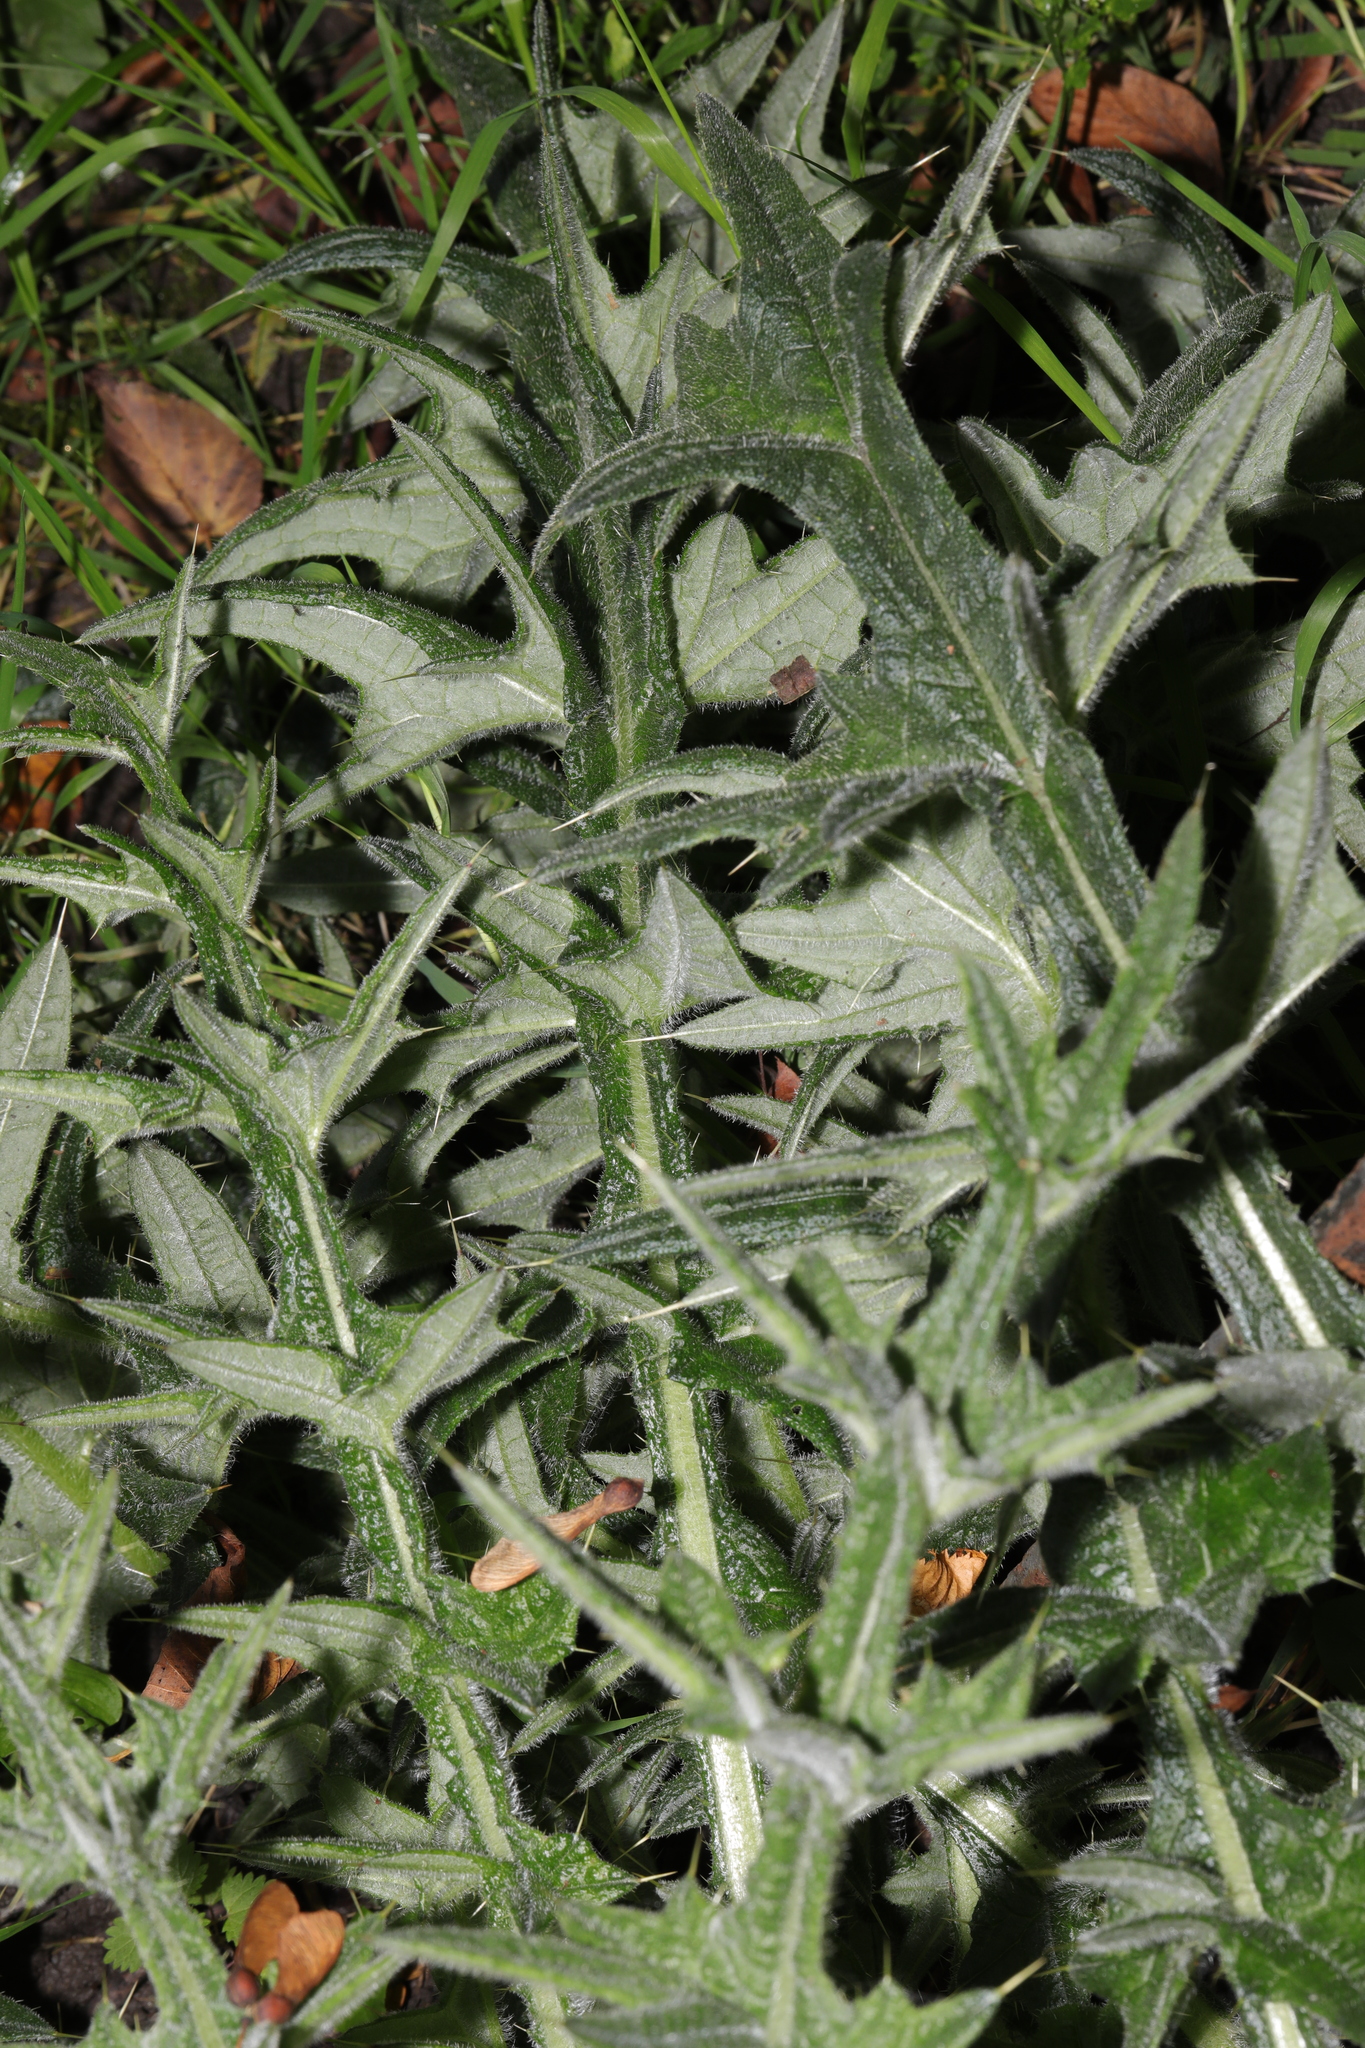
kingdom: Plantae
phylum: Tracheophyta
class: Magnoliopsida
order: Asterales
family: Asteraceae
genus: Cirsium
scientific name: Cirsium vulgare
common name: Bull thistle
